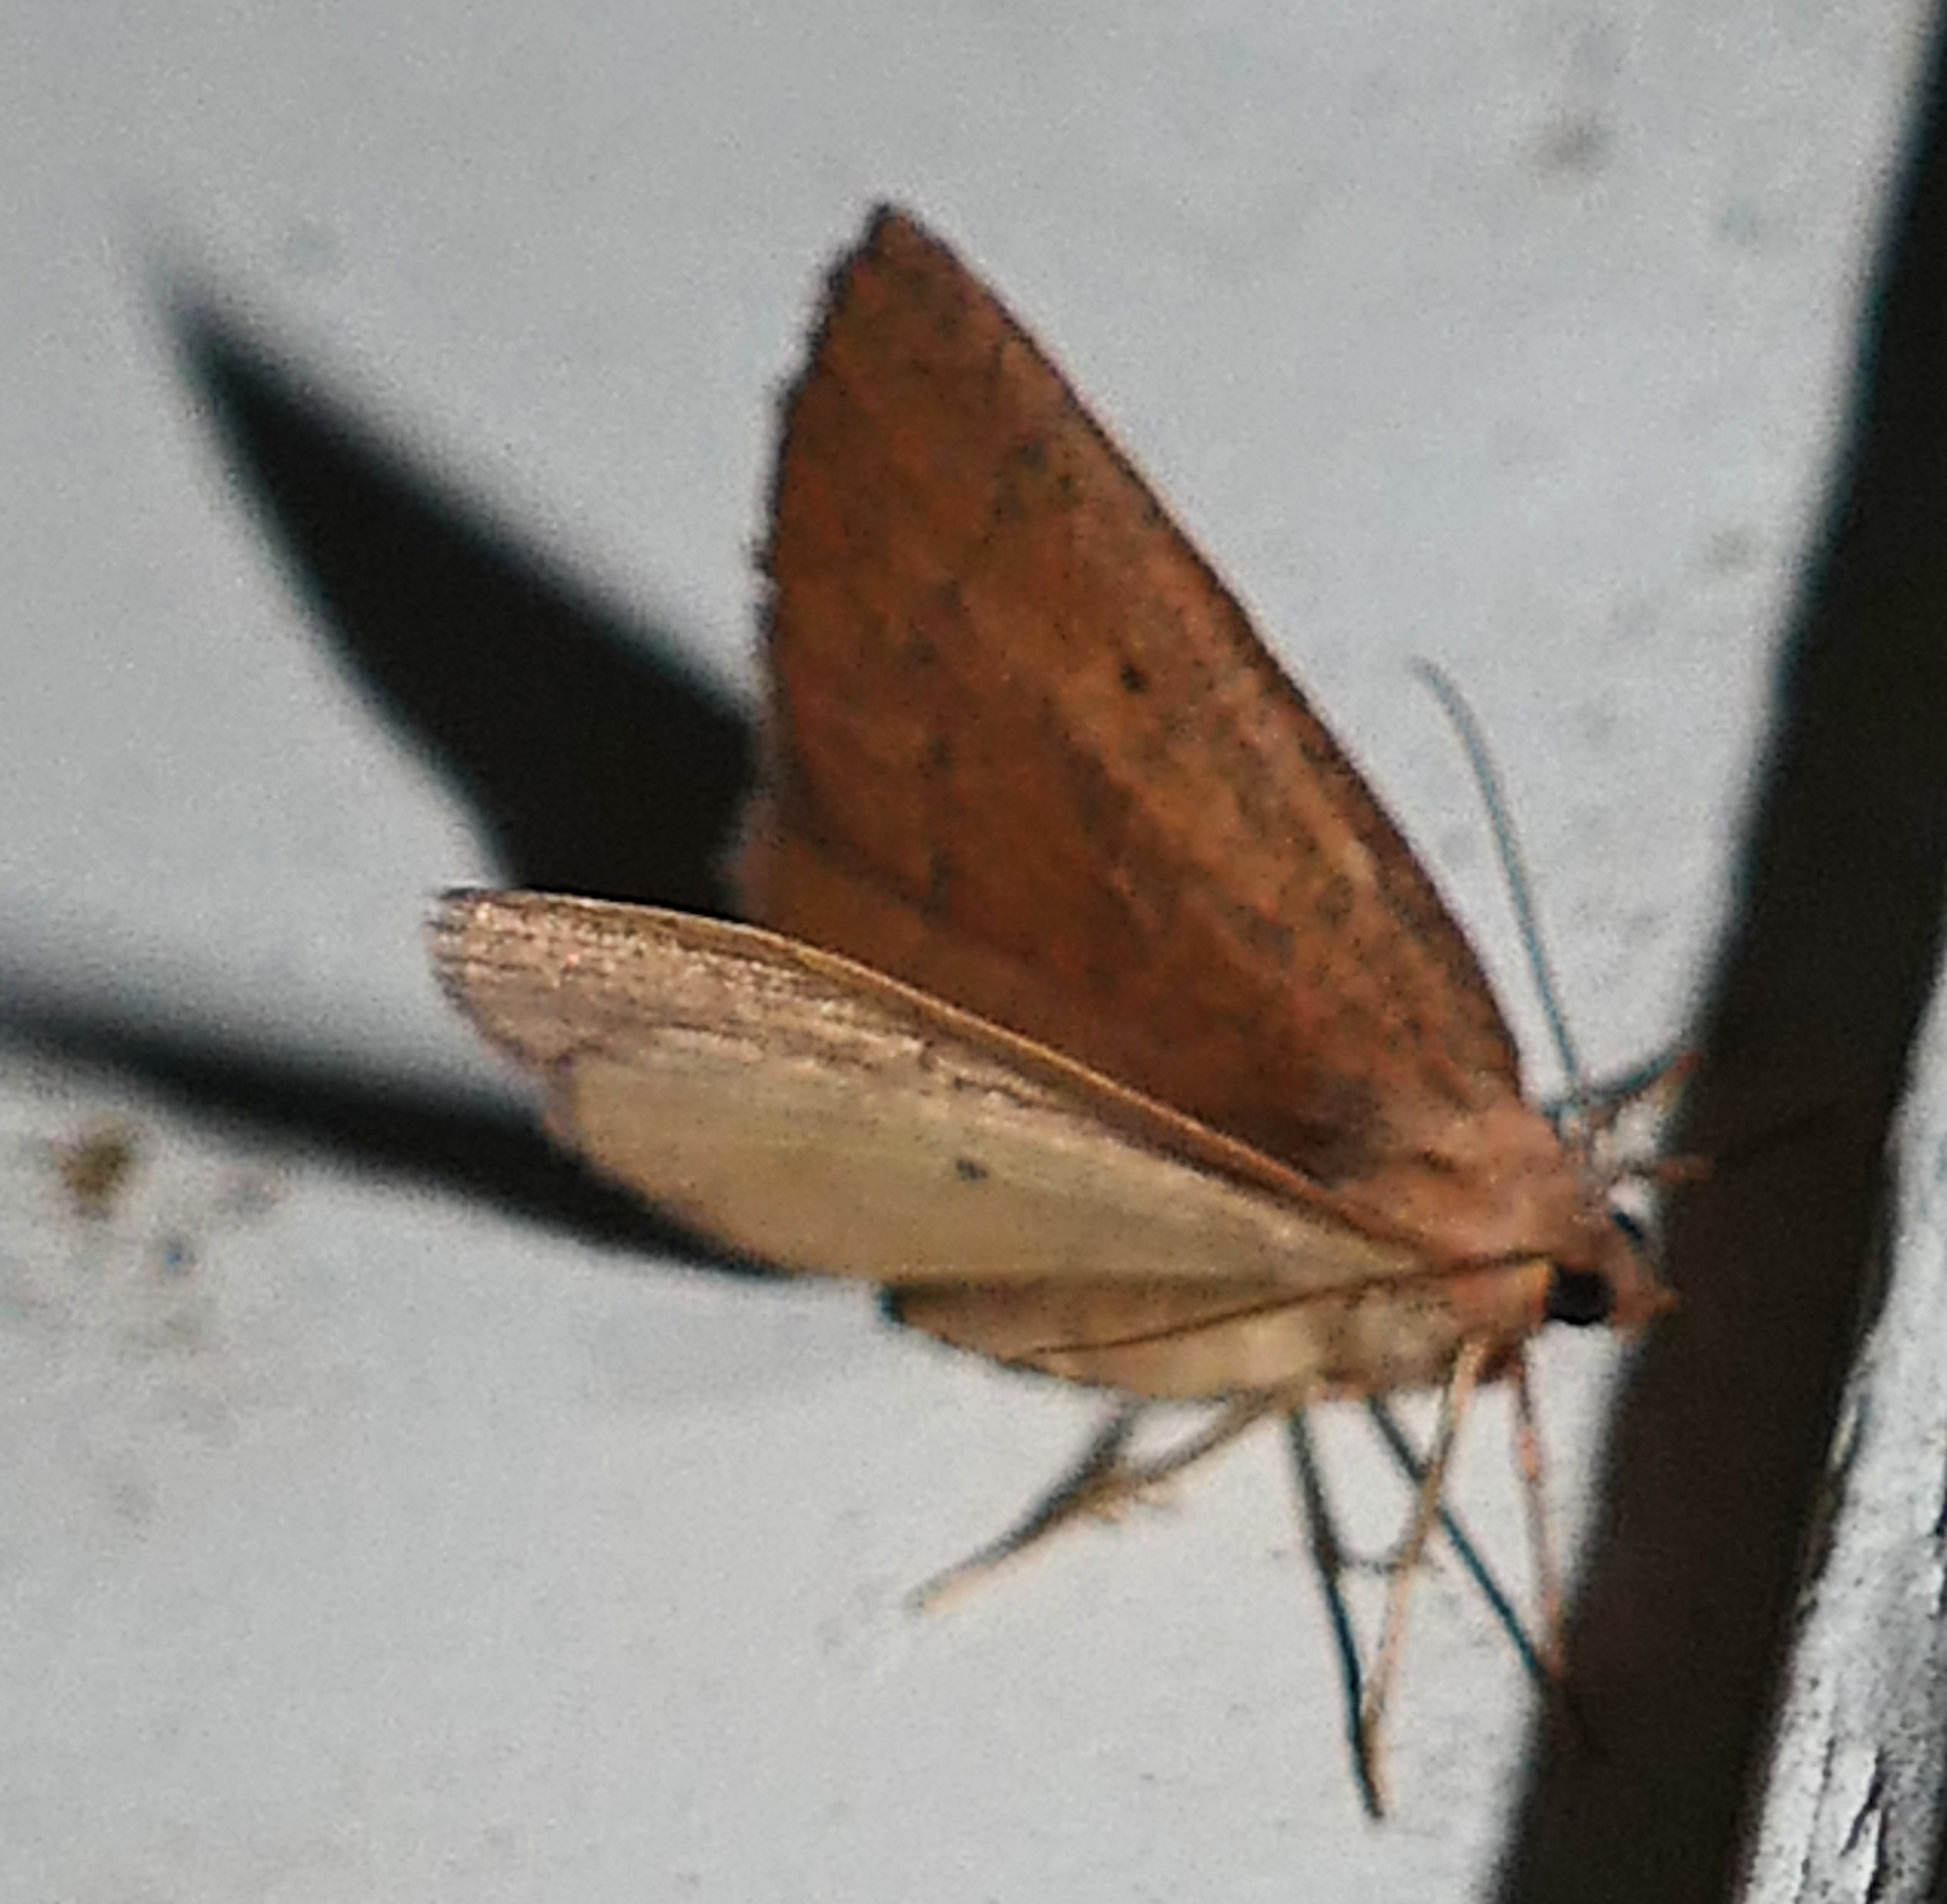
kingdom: Animalia
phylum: Arthropoda
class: Insecta
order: Lepidoptera
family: Geometridae
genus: Ilexia
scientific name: Ilexia intractata
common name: Black-dotted ruddy moth
